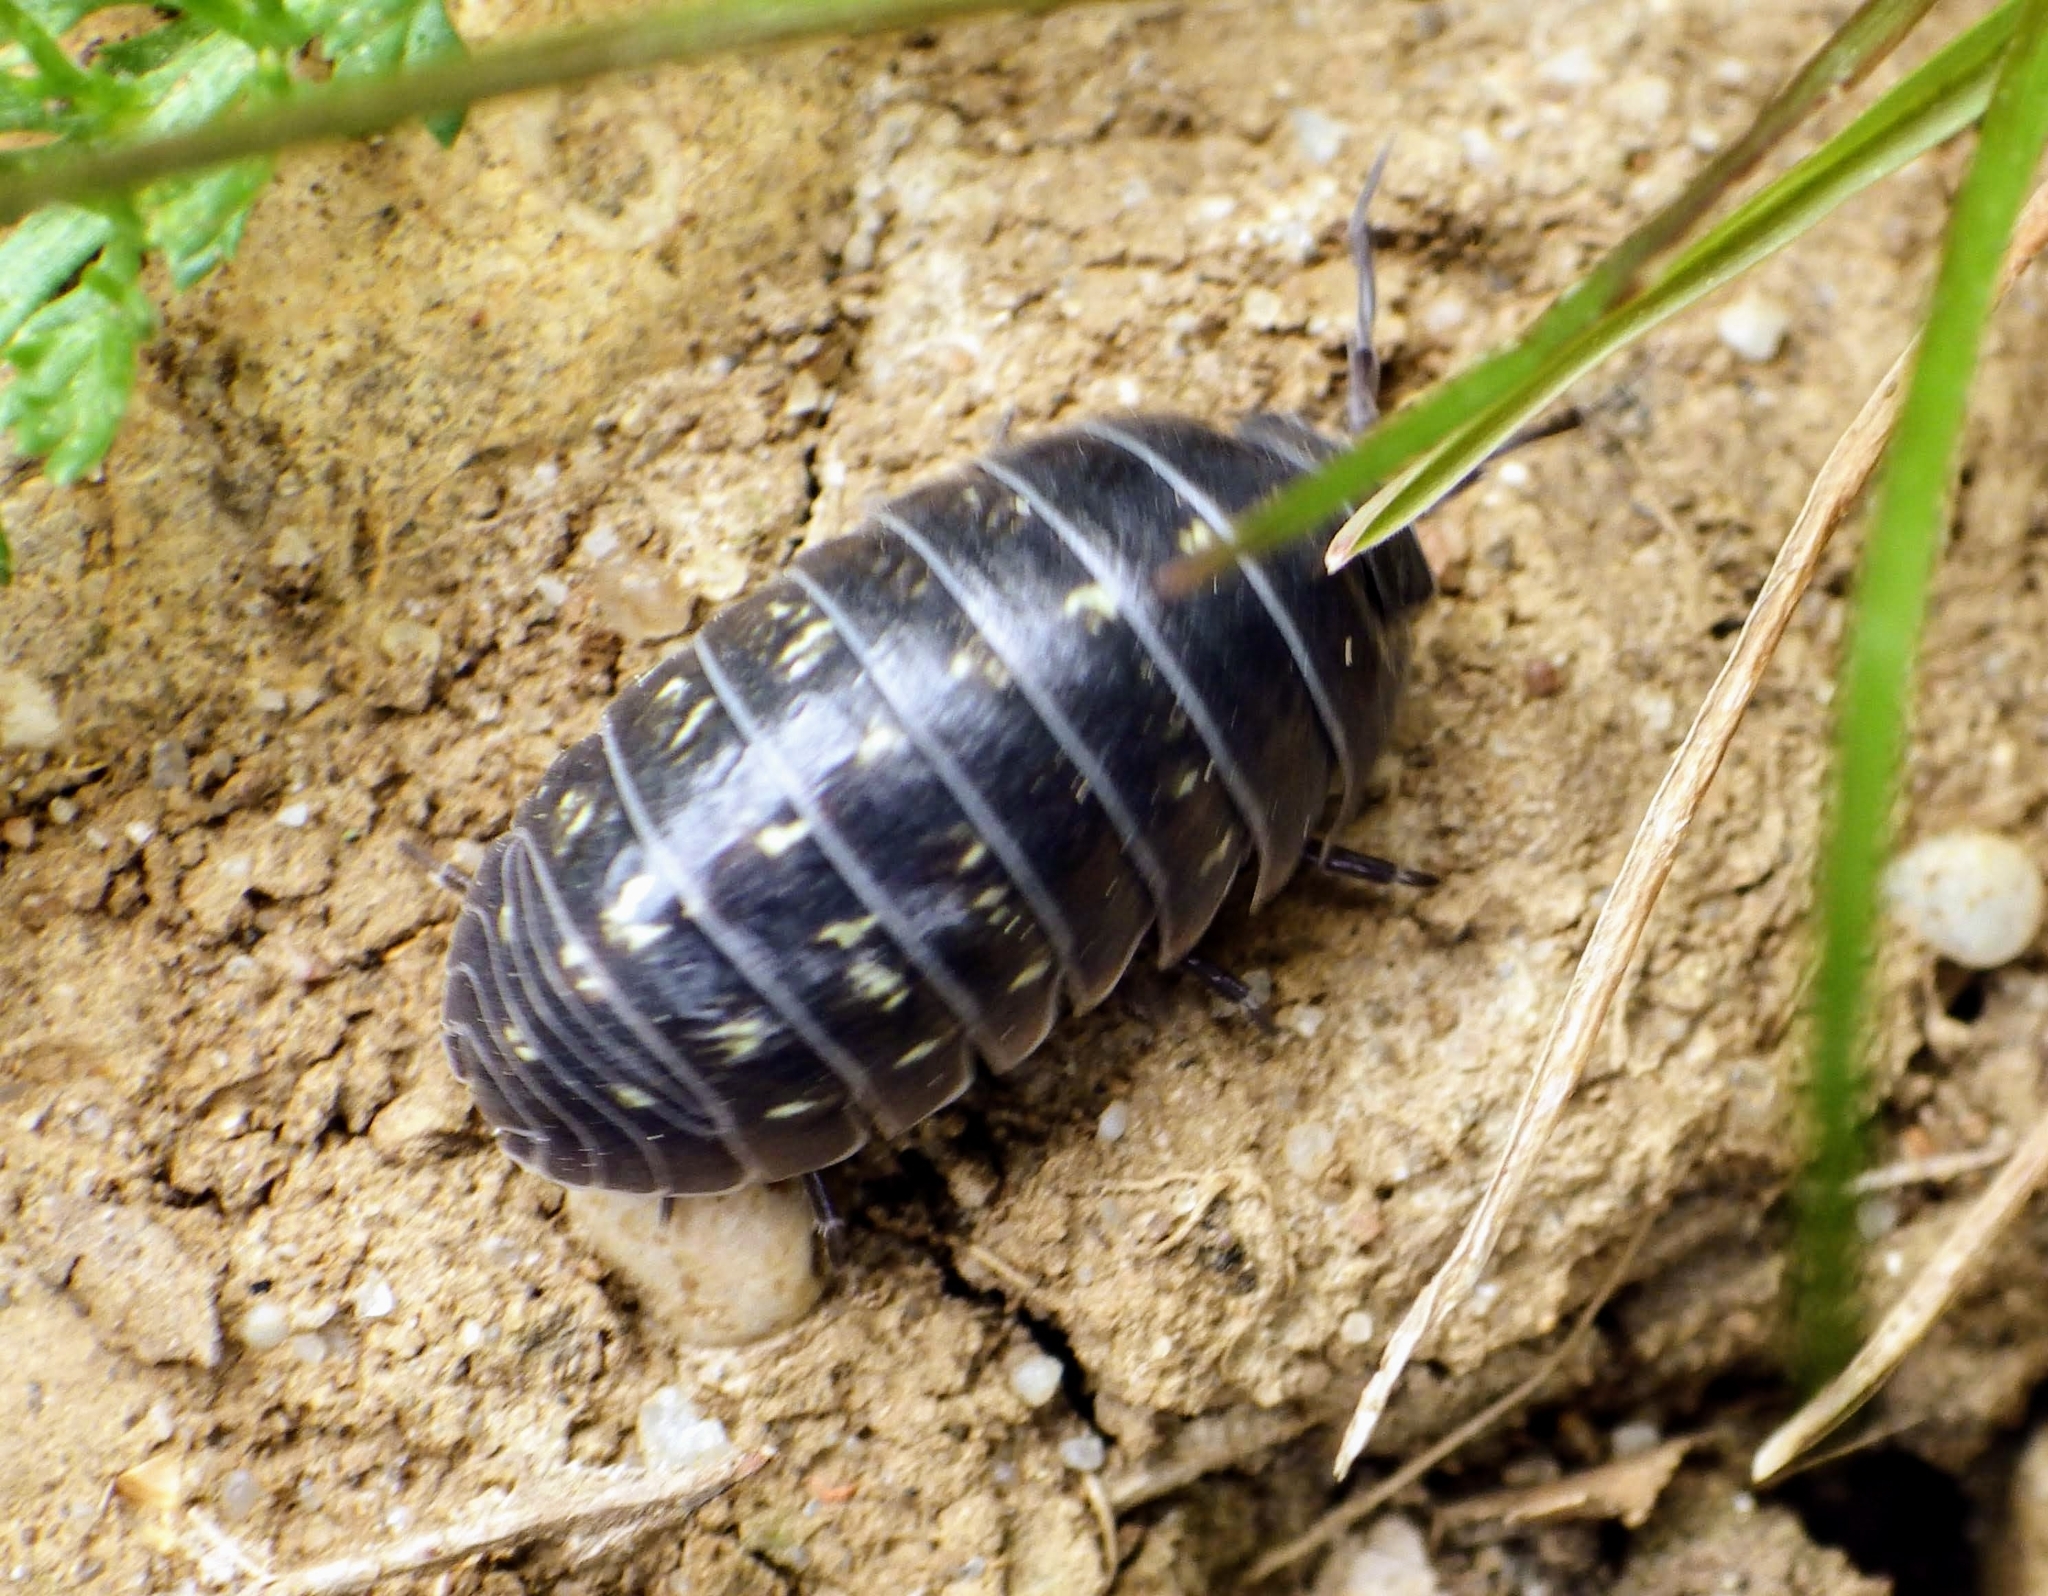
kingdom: Animalia
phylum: Arthropoda
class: Malacostraca
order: Isopoda
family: Armadillidiidae
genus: Armadillidium
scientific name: Armadillidium vulgare
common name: Common pill woodlouse
